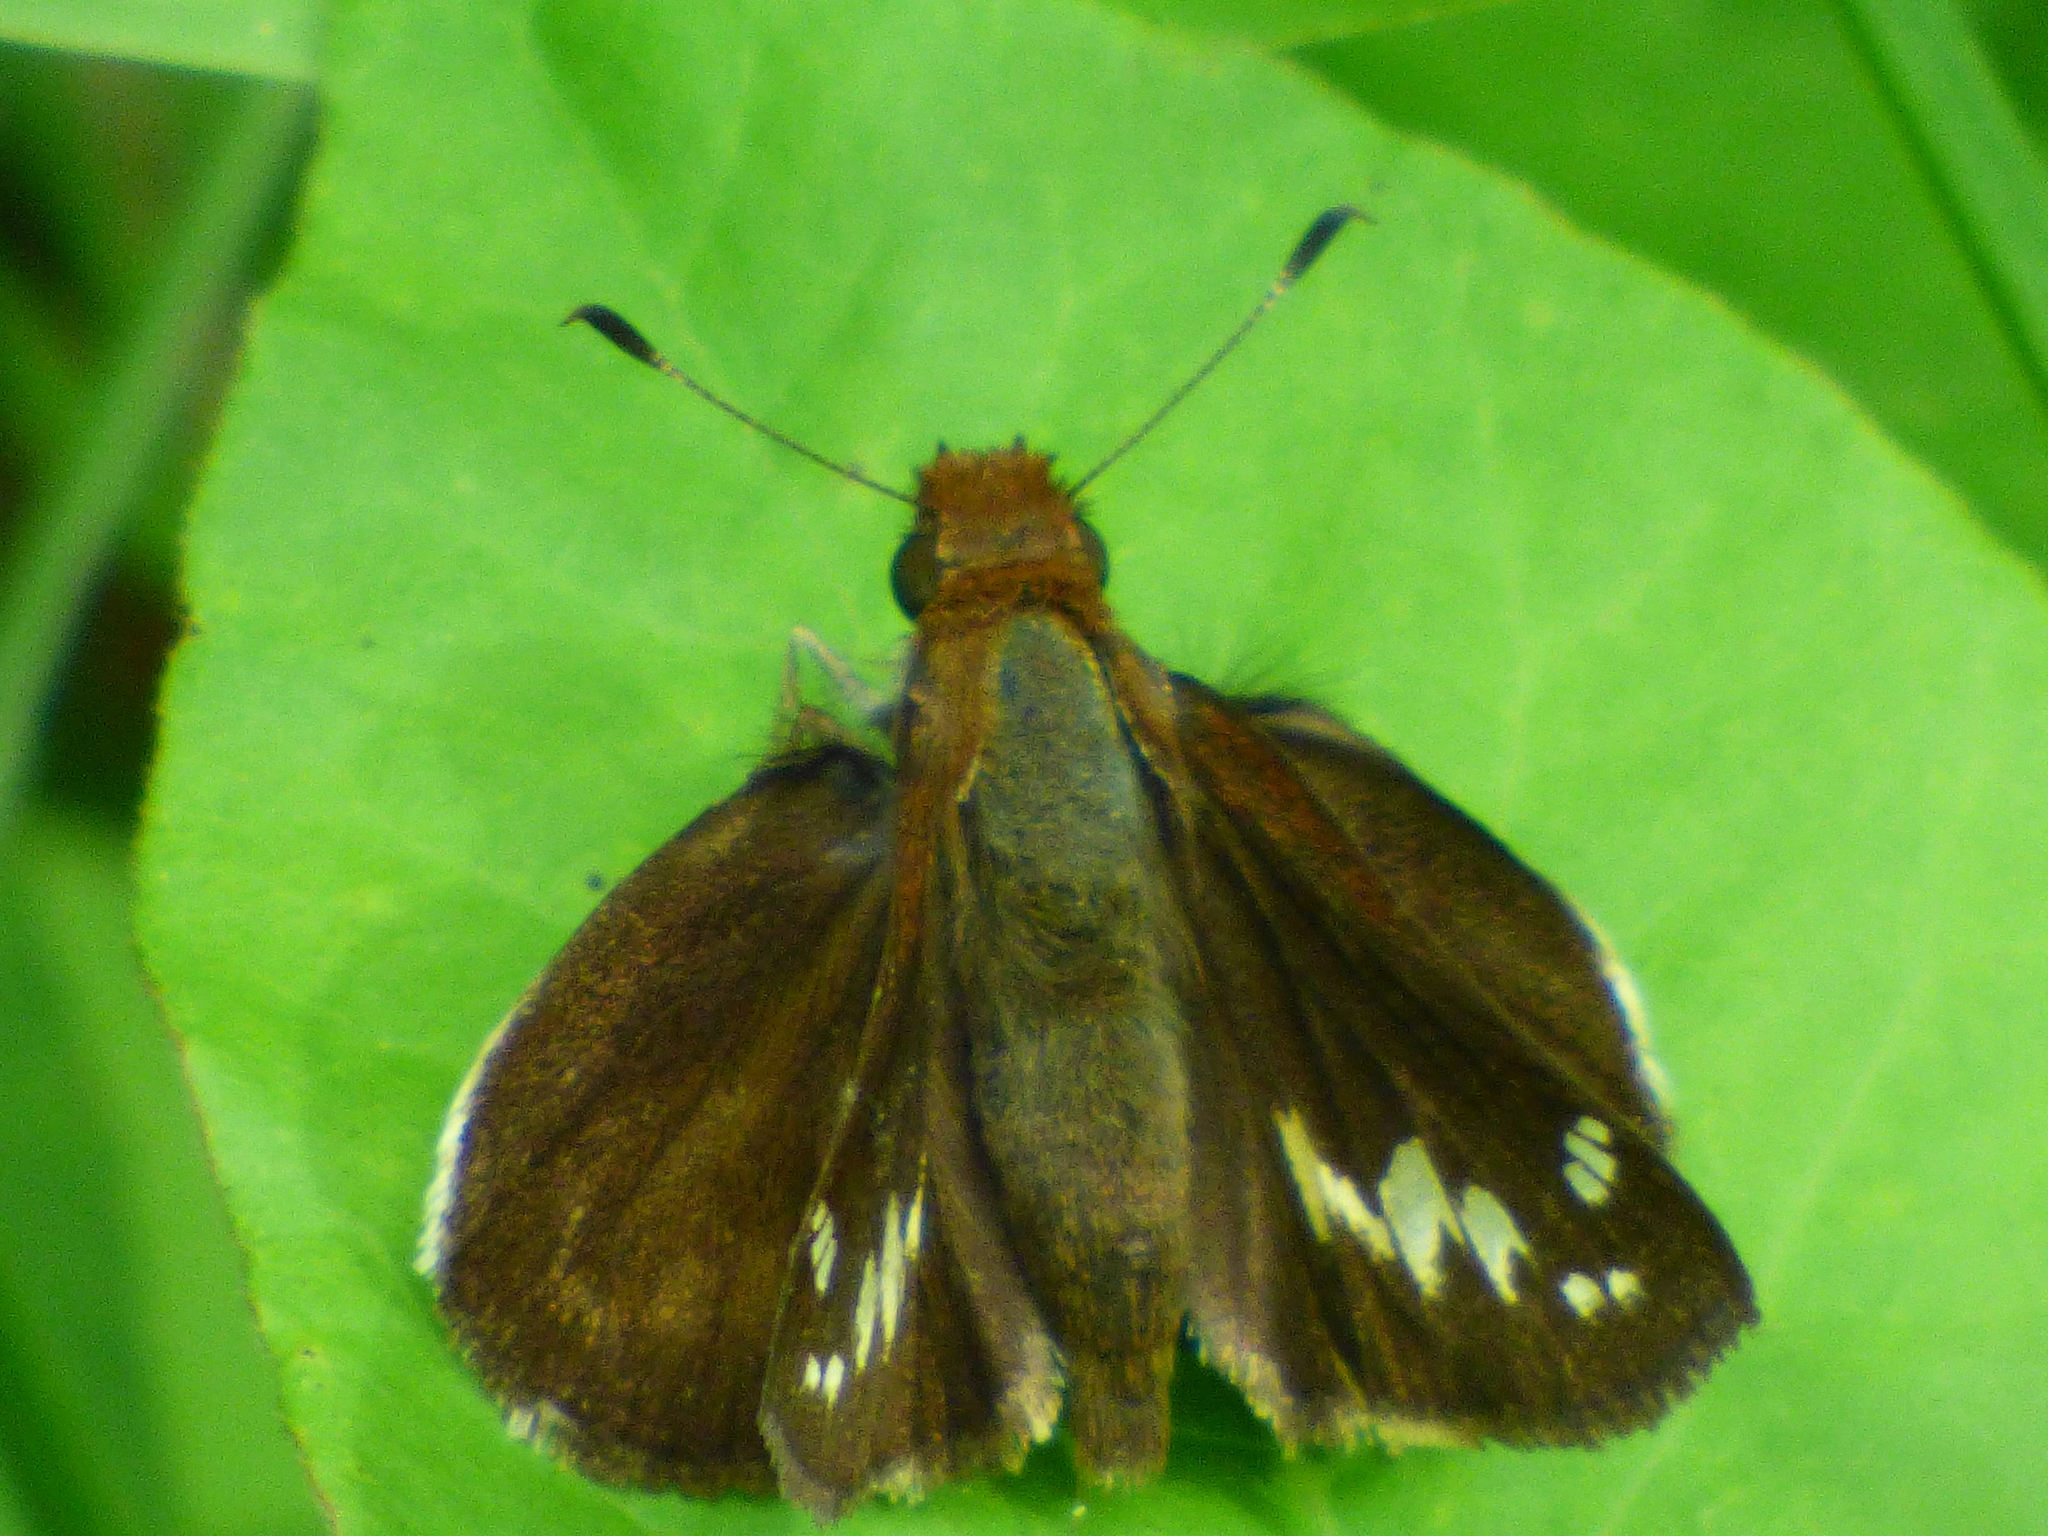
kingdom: Animalia
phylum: Arthropoda
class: Insecta
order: Lepidoptera
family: Hesperiidae
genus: Lon
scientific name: Lon zabulon
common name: Zabulon skipper
